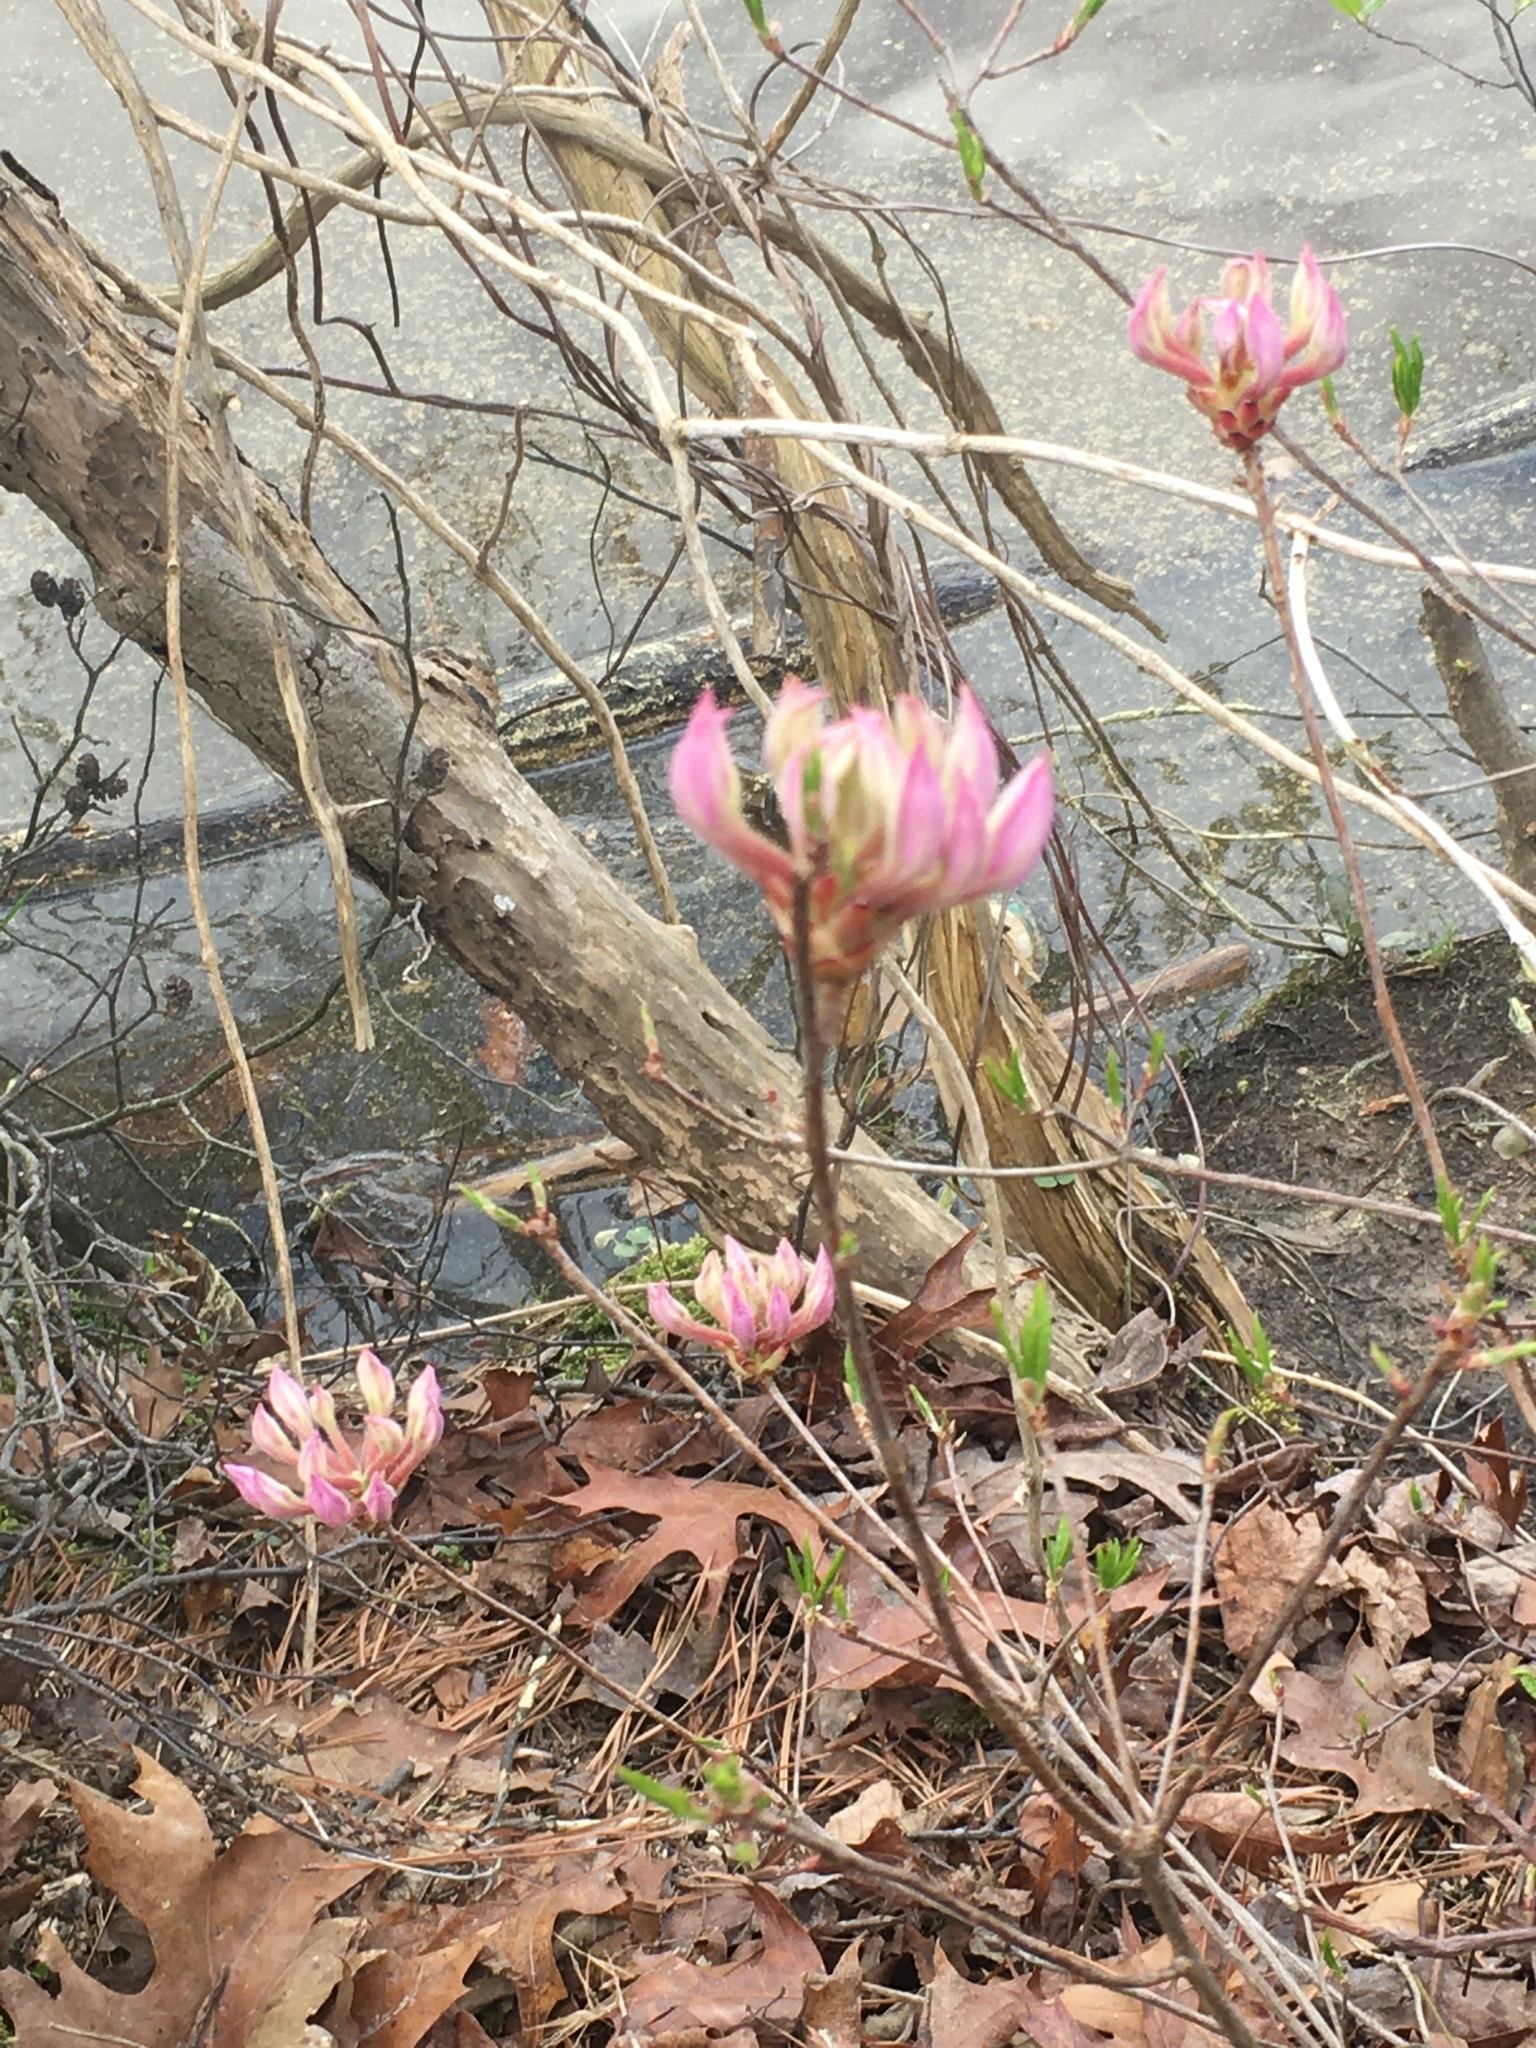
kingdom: Plantae
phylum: Tracheophyta
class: Magnoliopsida
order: Ericales
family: Ericaceae
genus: Rhododendron
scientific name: Rhododendron periclymenoides
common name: Election-pink
